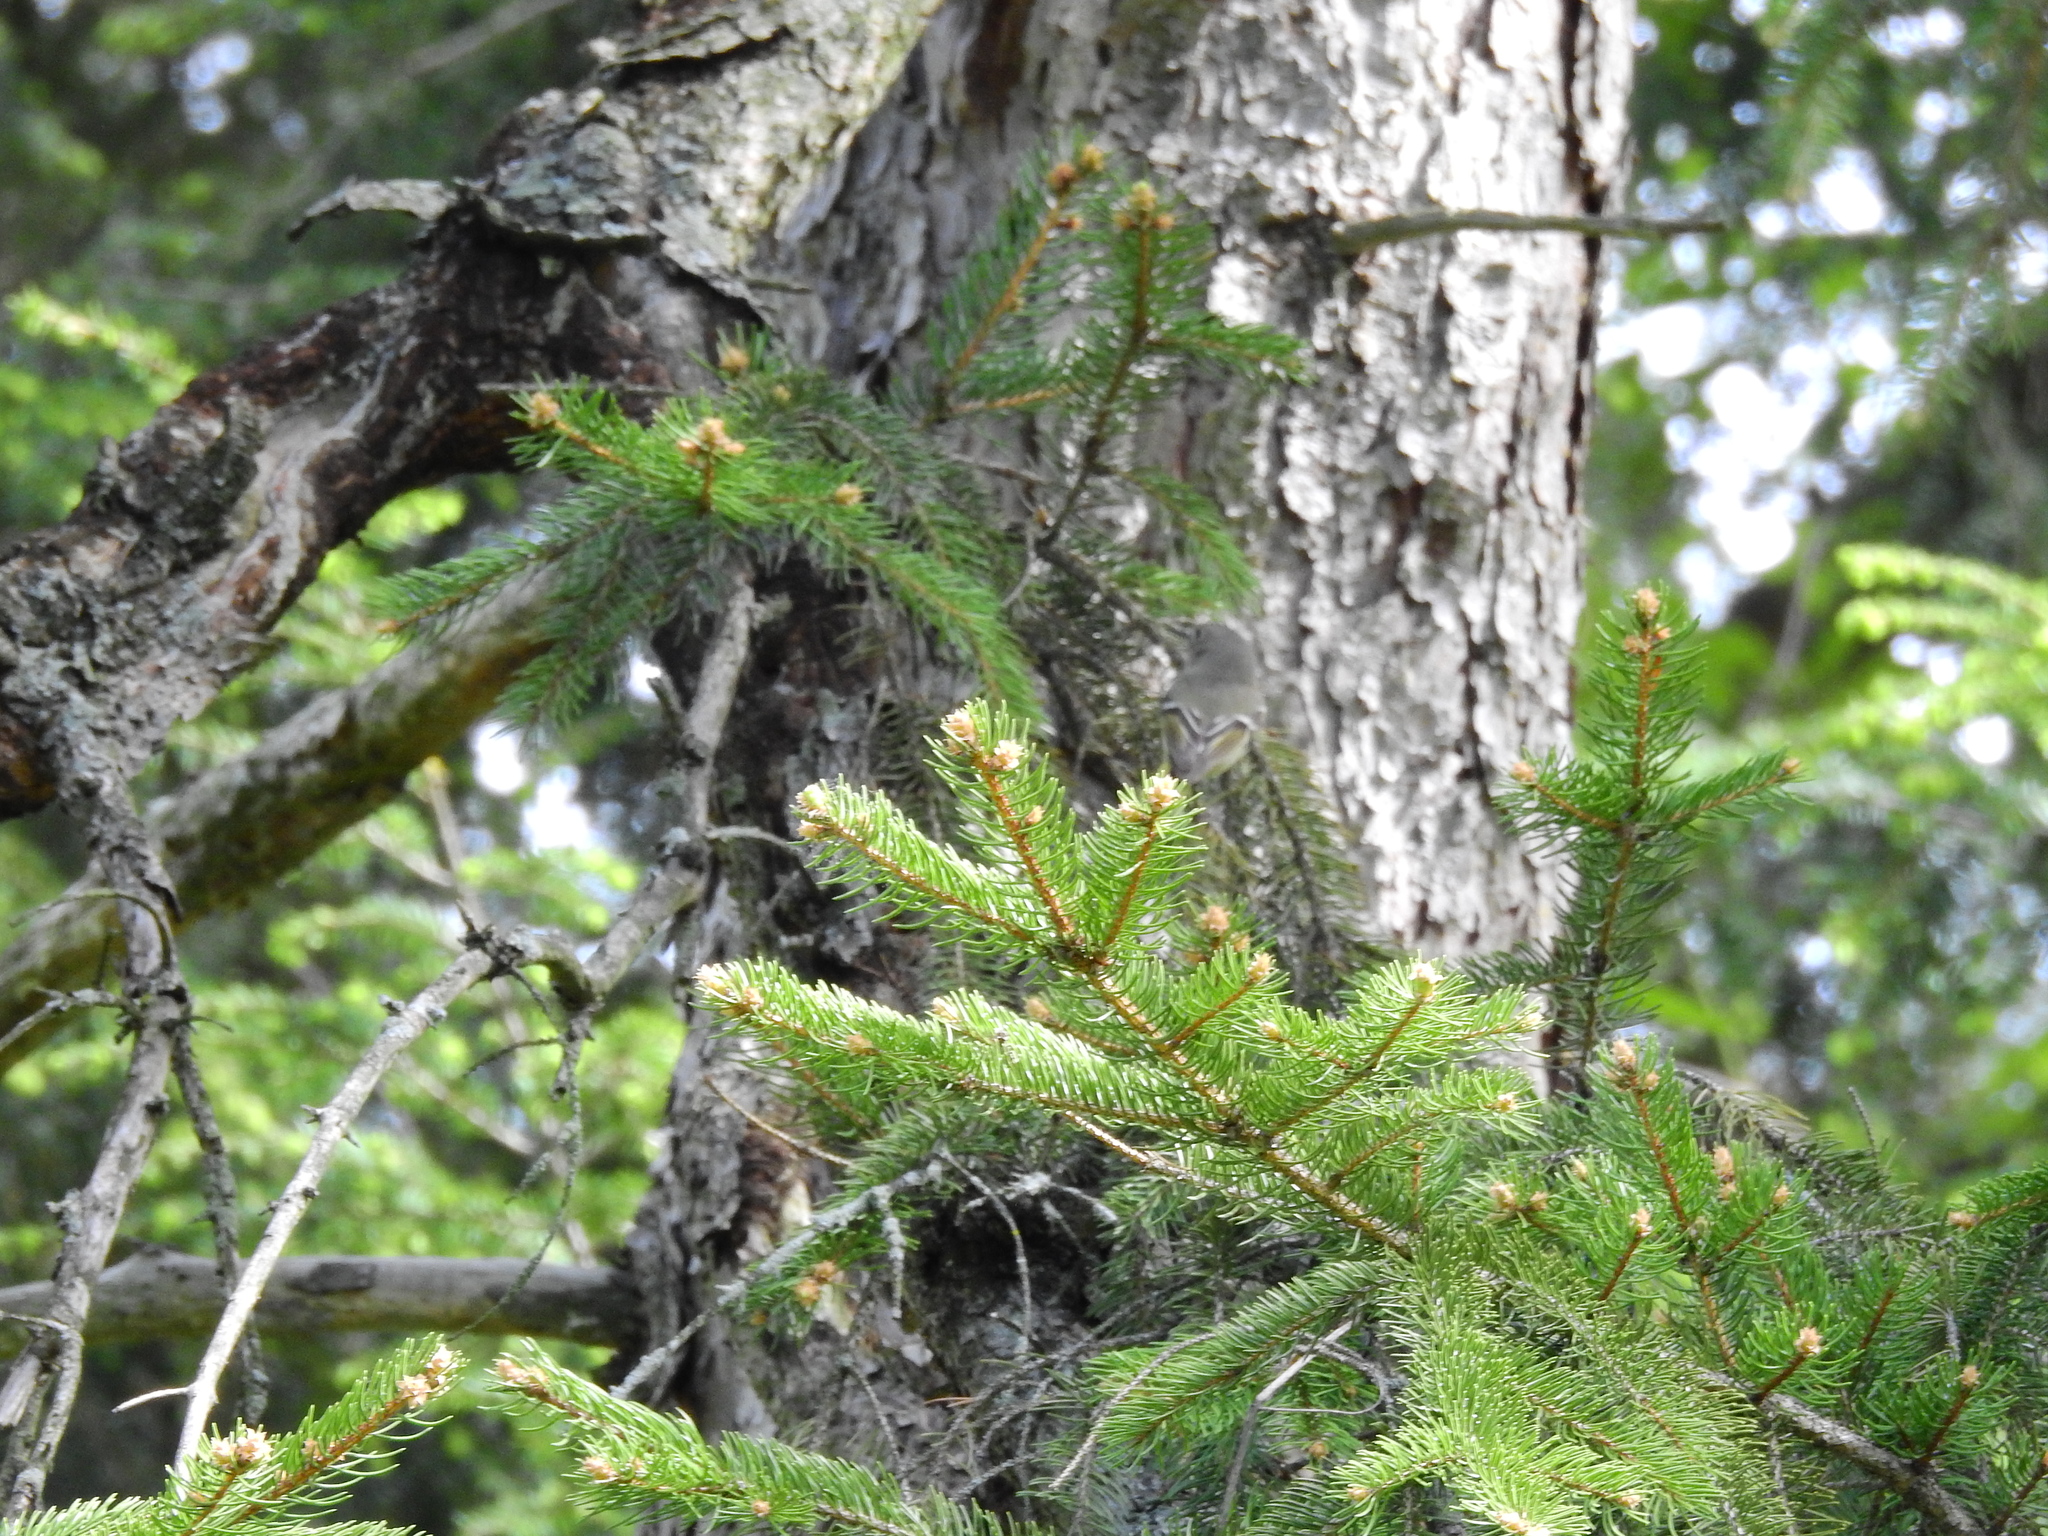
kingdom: Animalia
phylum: Chordata
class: Aves
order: Passeriformes
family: Regulidae
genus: Regulus
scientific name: Regulus calendula
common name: Ruby-crowned kinglet
